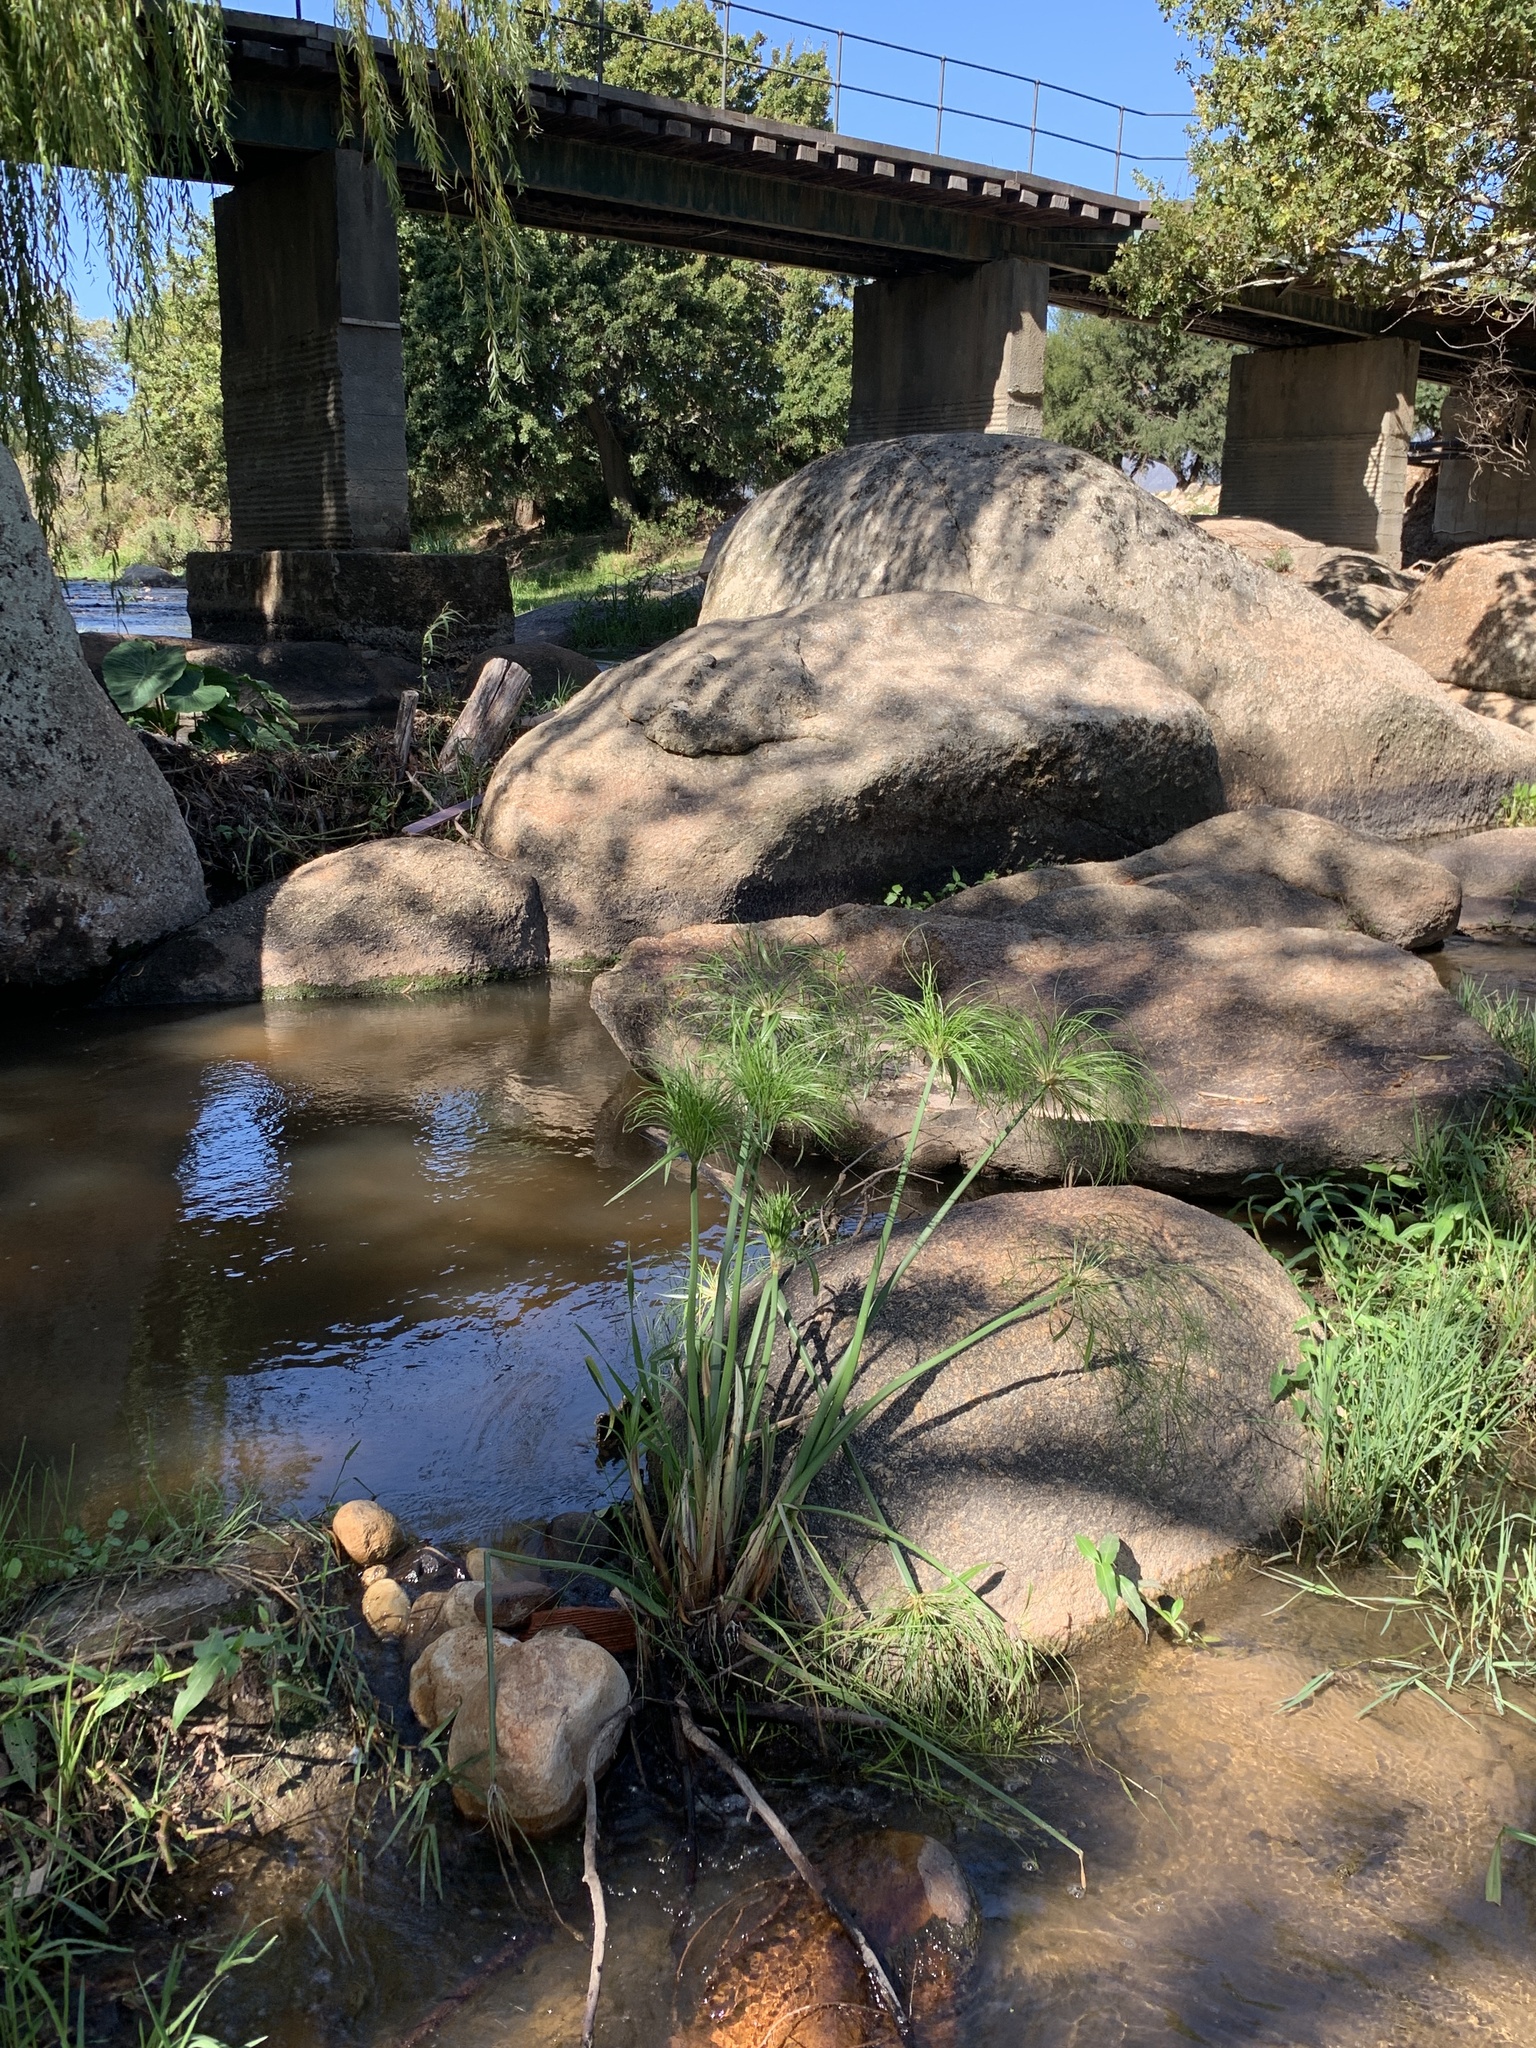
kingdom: Plantae
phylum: Tracheophyta
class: Liliopsida
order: Poales
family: Cyperaceae
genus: Cyperus
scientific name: Cyperus papyrus
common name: Papyrus
